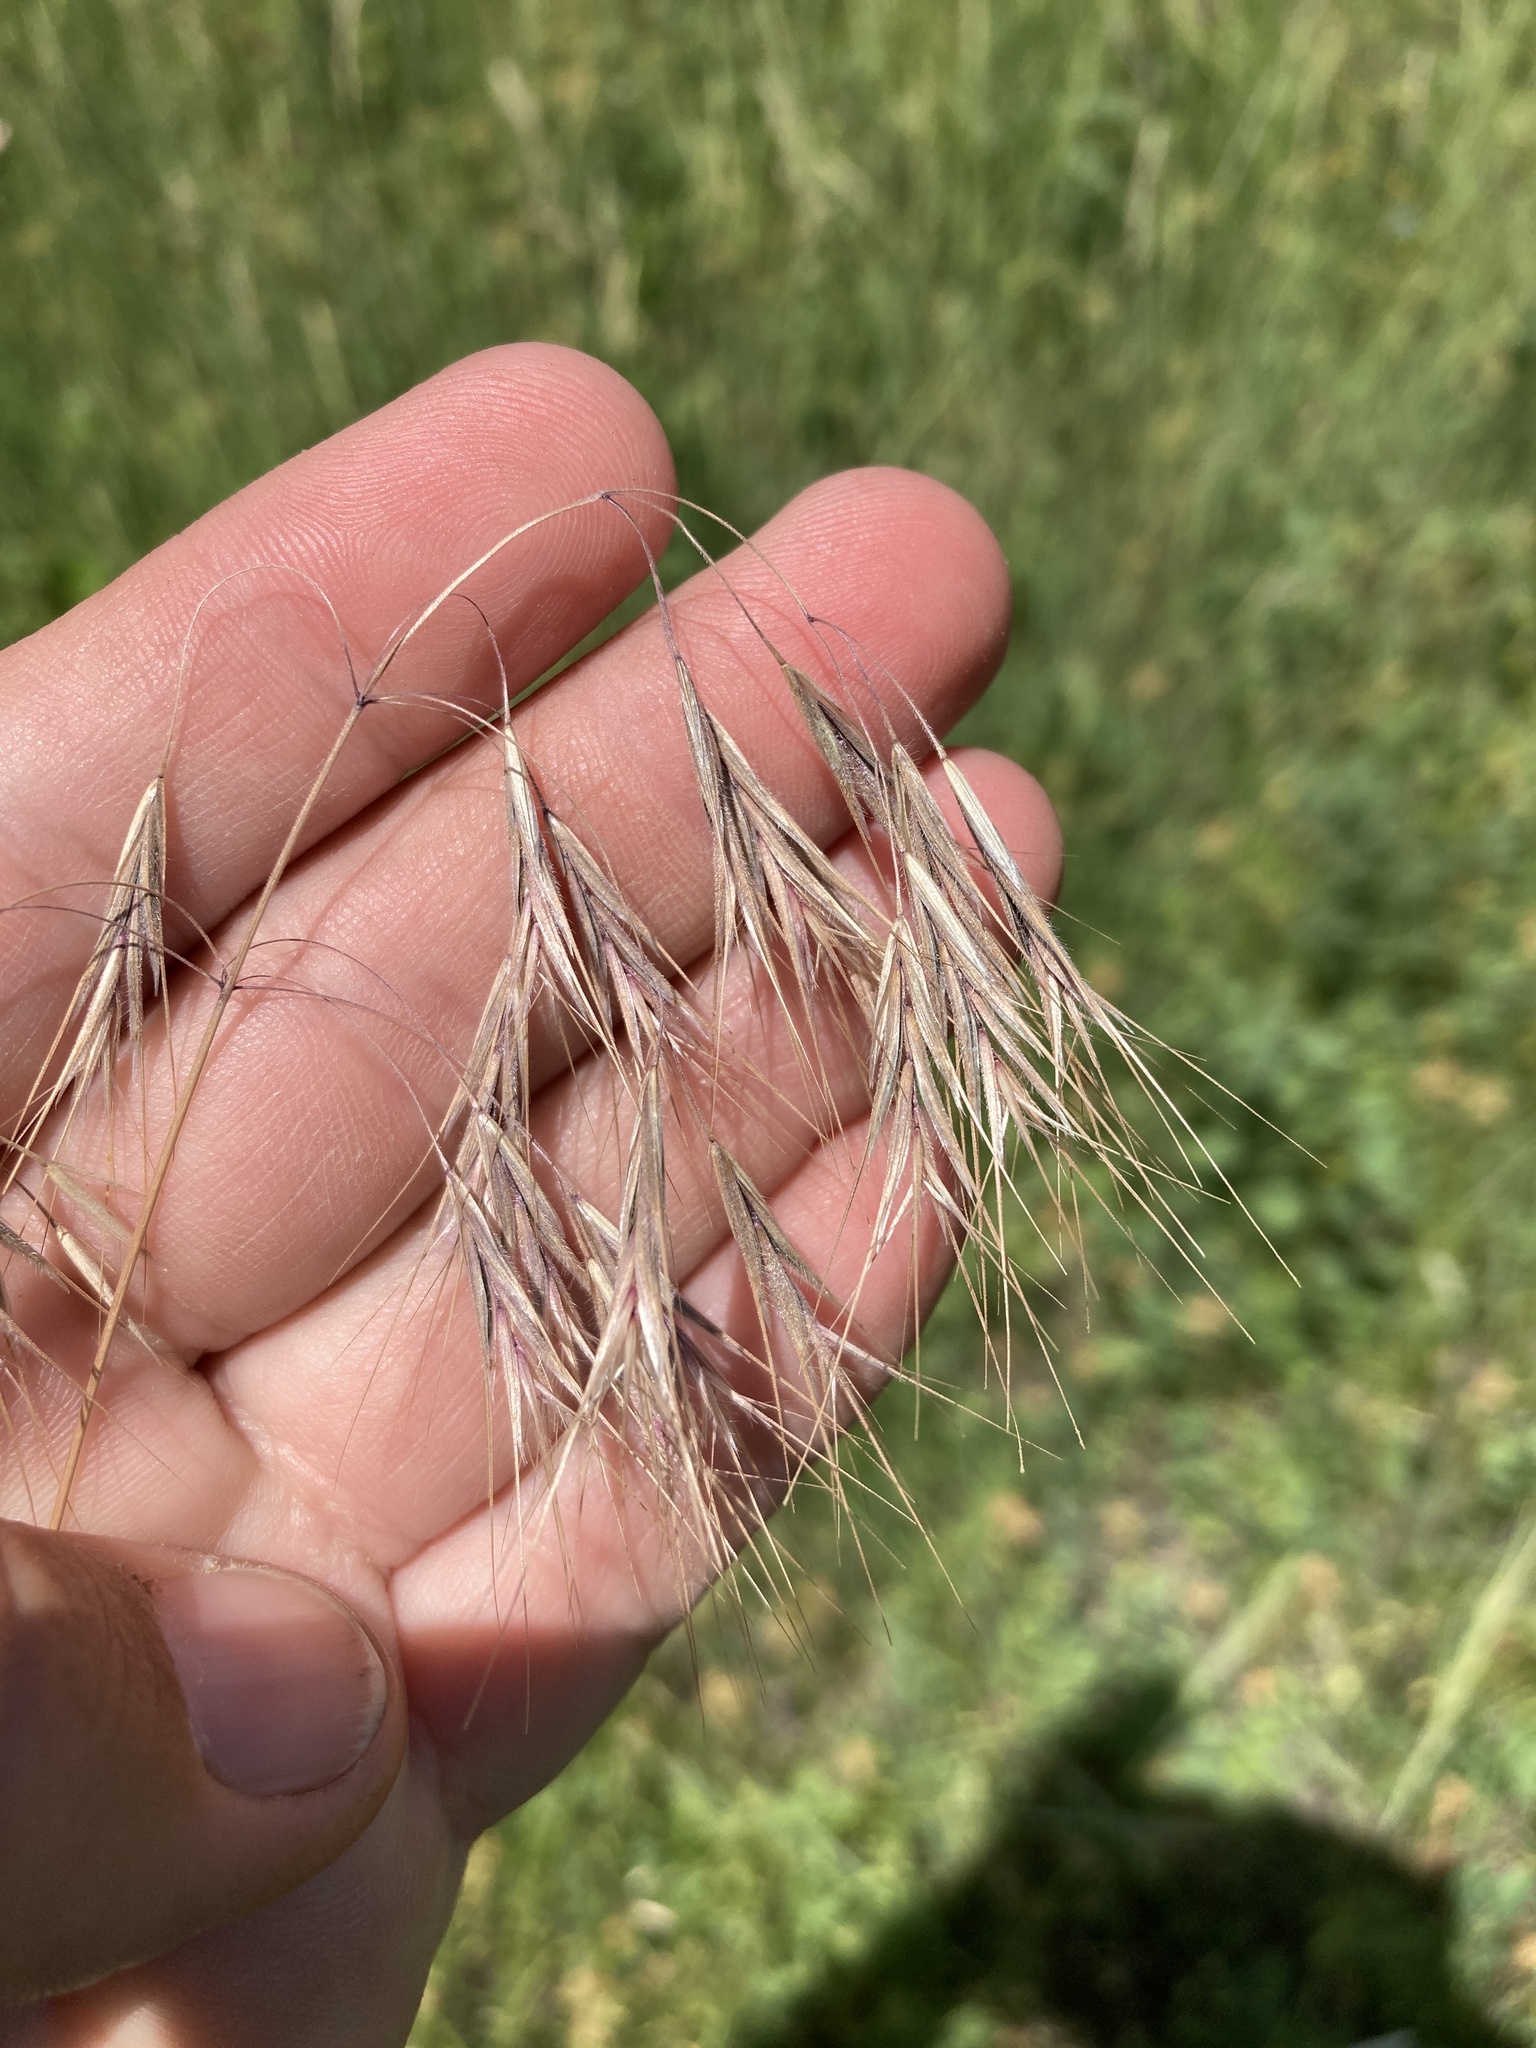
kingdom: Plantae
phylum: Tracheophyta
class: Liliopsida
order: Poales
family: Poaceae
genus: Bromus
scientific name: Bromus tectorum
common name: Cheatgrass
